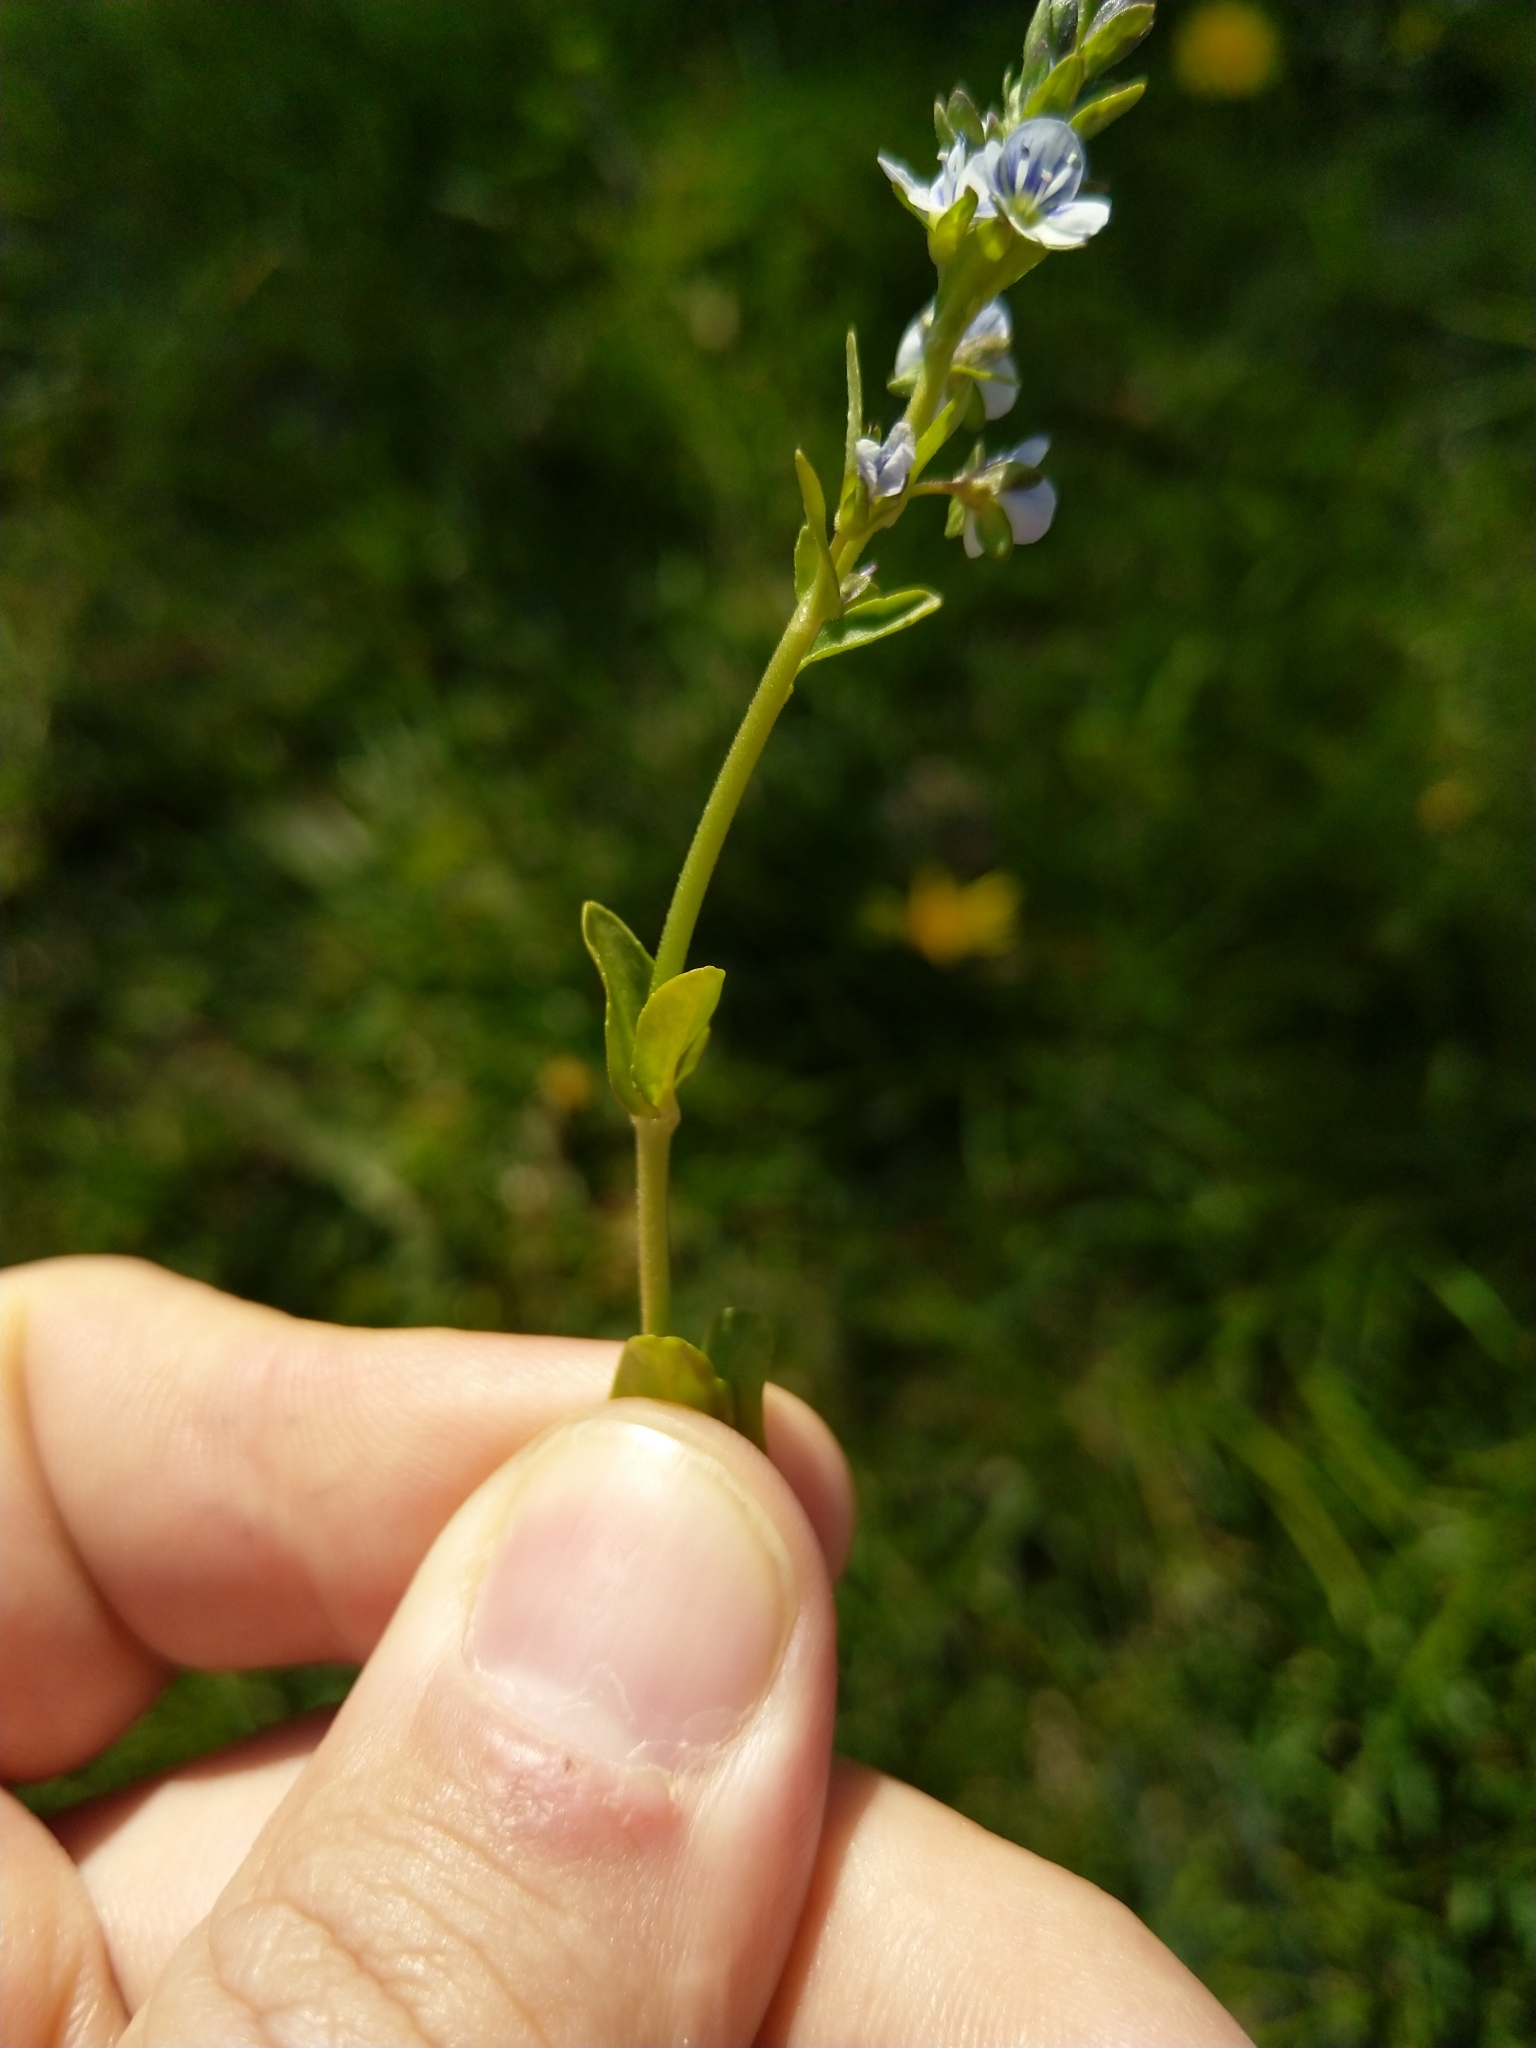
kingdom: Plantae
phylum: Tracheophyta
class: Magnoliopsida
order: Lamiales
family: Plantaginaceae
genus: Veronica
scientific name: Veronica serpyllifolia
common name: Thyme-leaved speedwell
